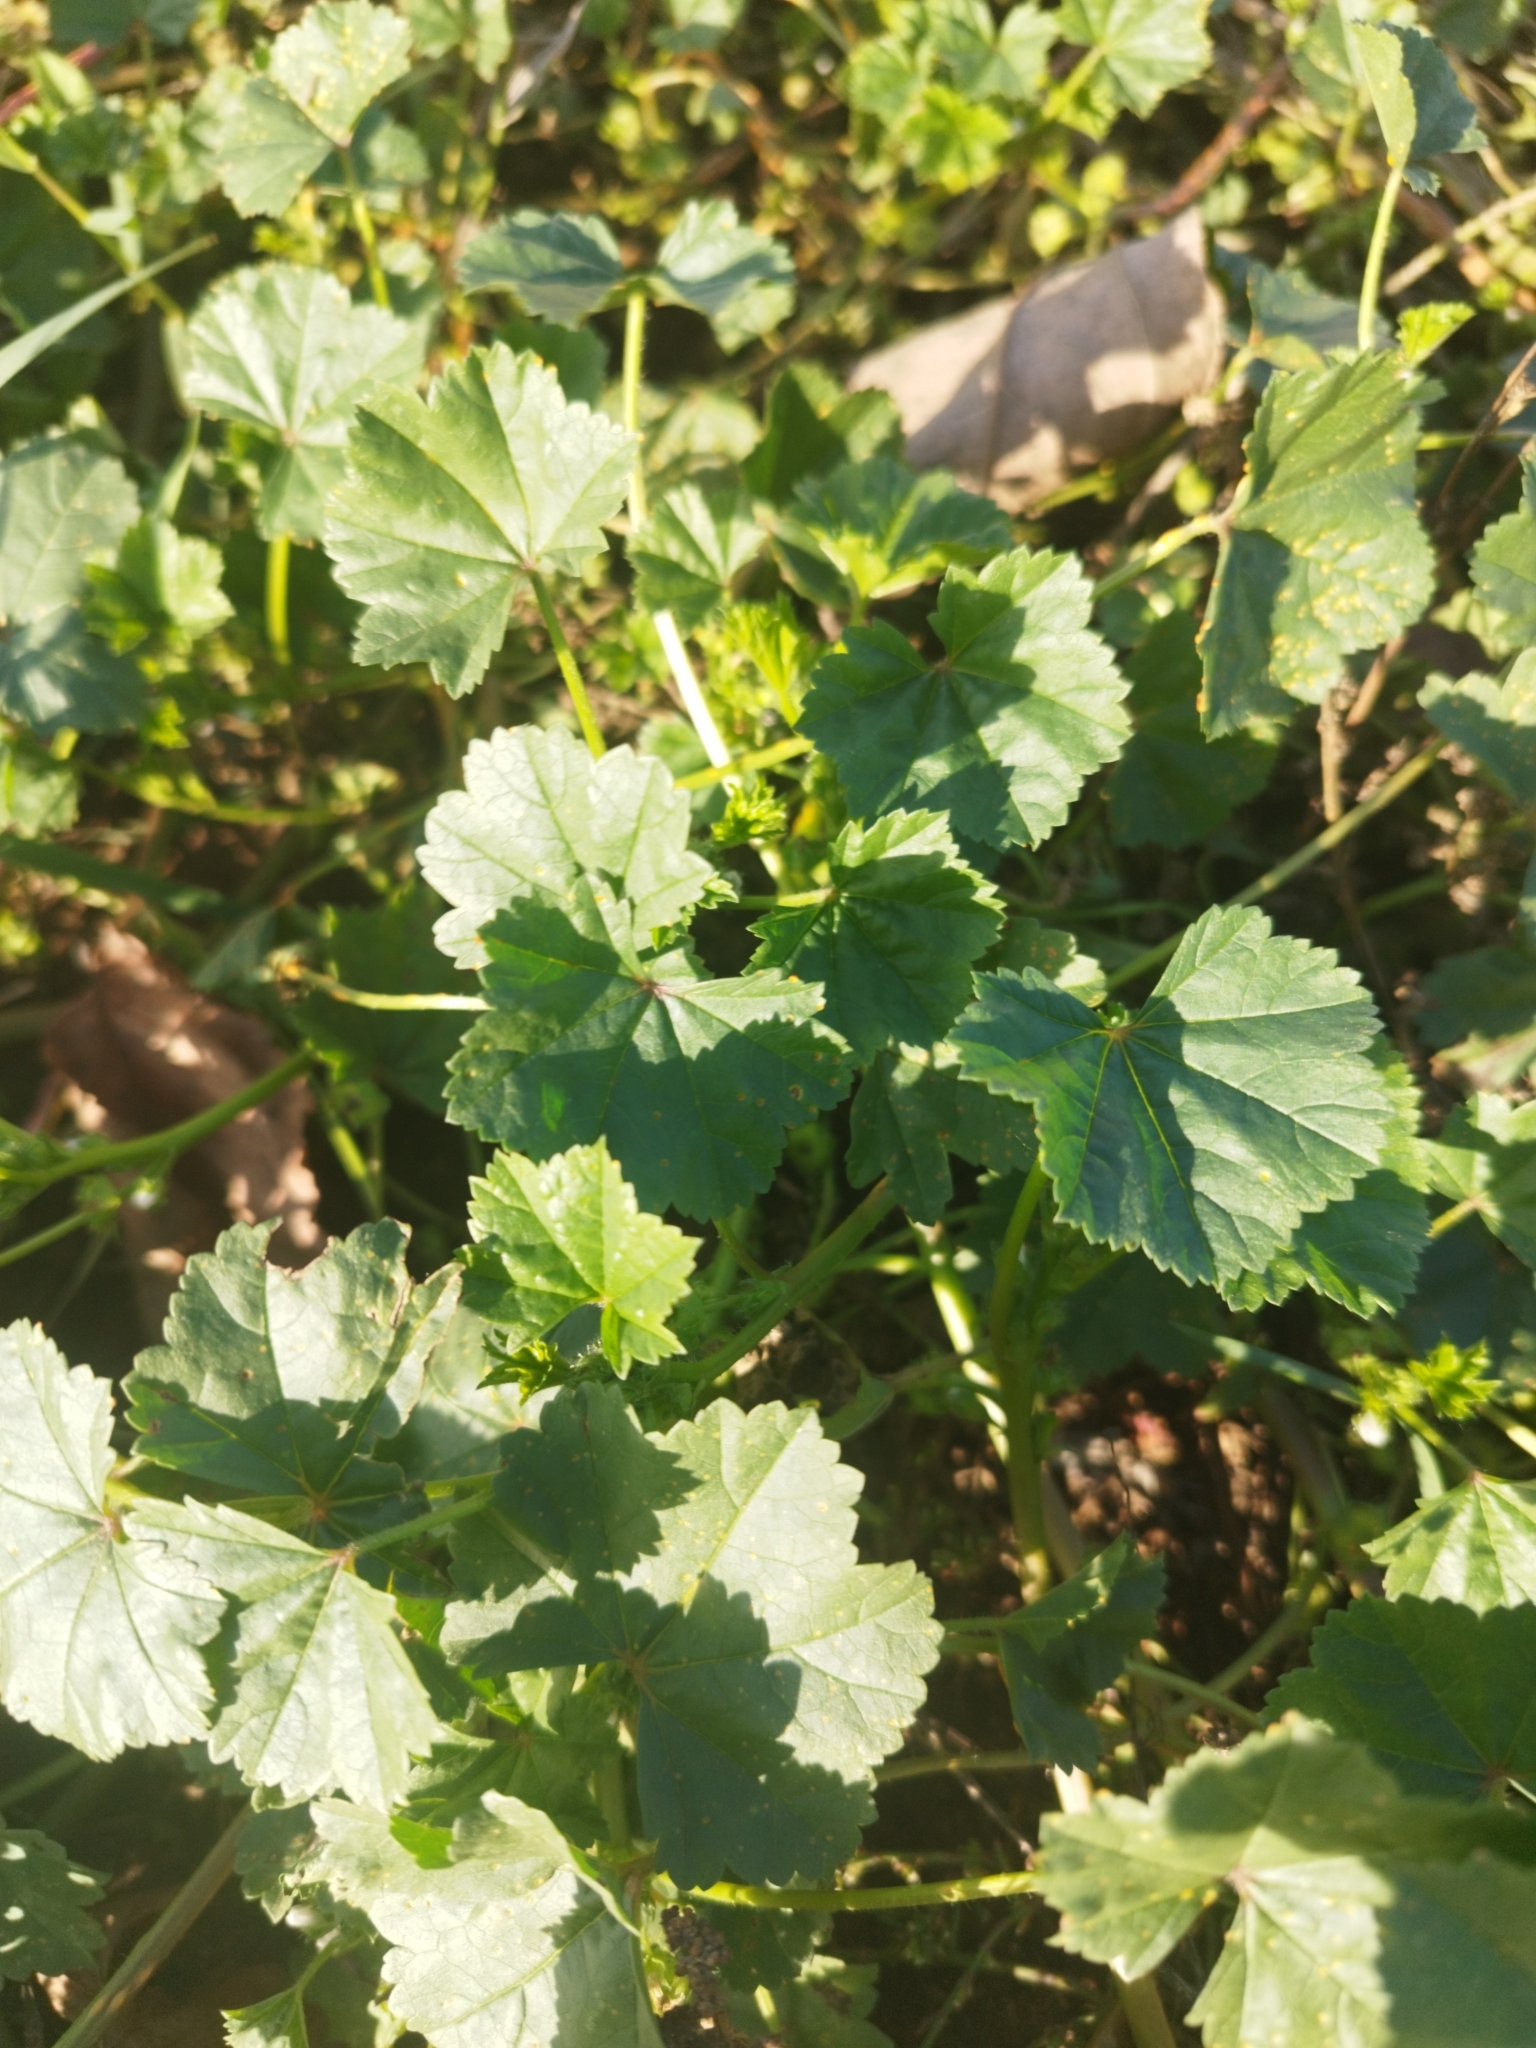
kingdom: Plantae
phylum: Tracheophyta
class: Magnoliopsida
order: Malvales
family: Malvaceae
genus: Malva
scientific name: Malva pusilla
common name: Small mallow
